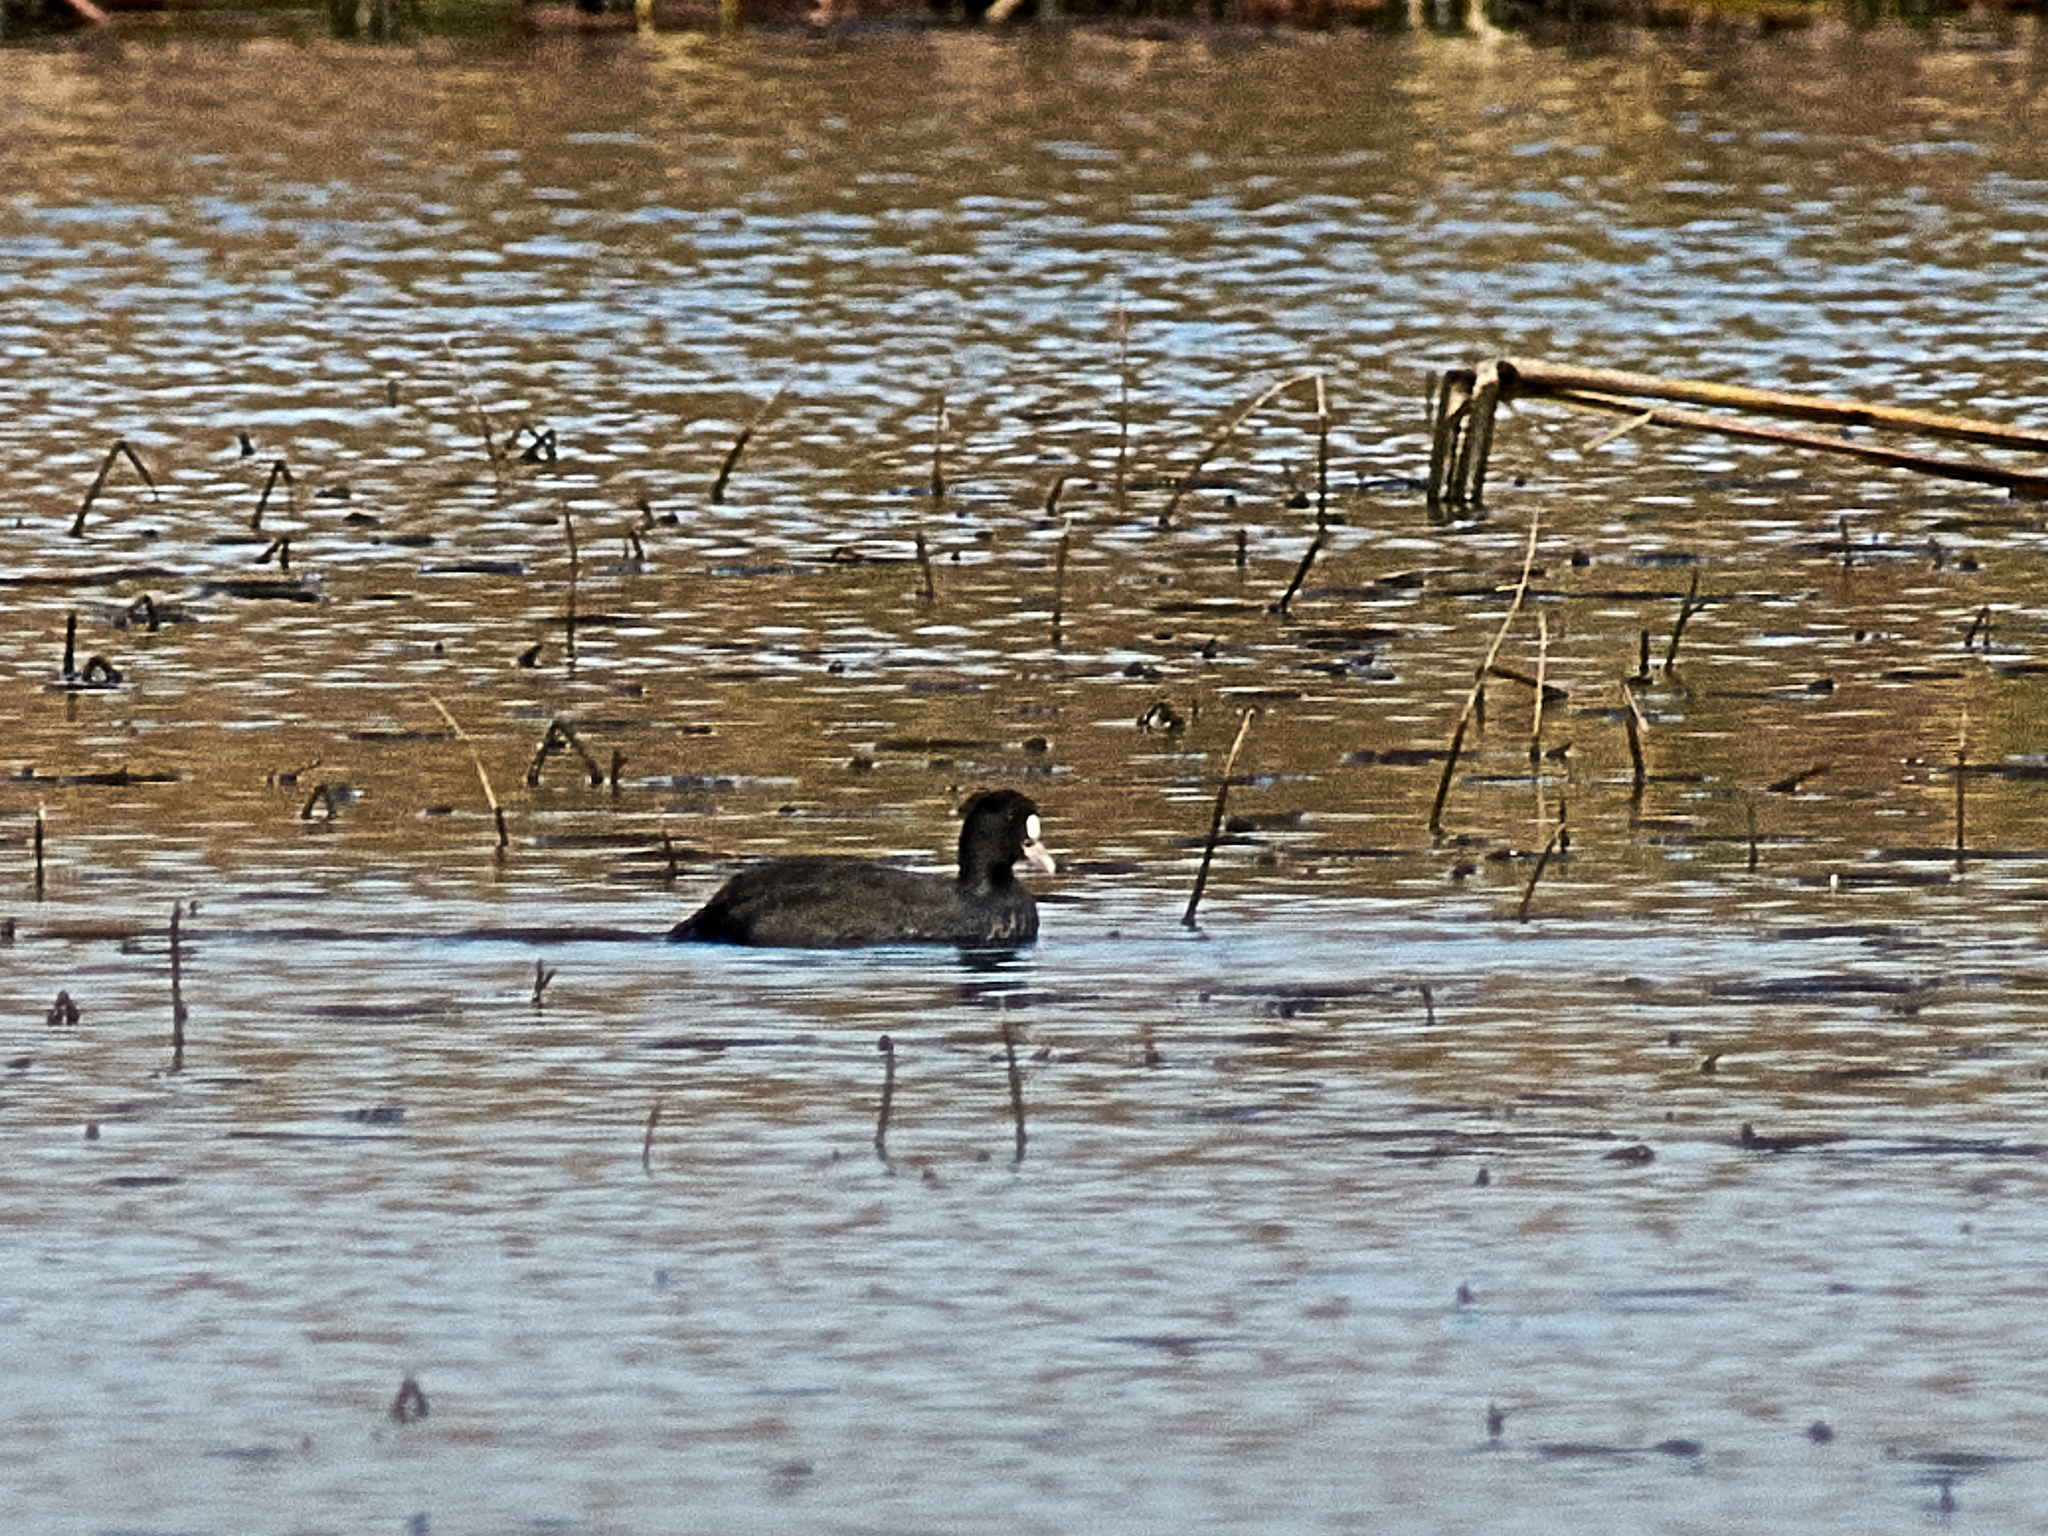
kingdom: Animalia
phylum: Chordata
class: Aves
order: Gruiformes
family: Rallidae
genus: Fulica
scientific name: Fulica atra
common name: Eurasian coot
